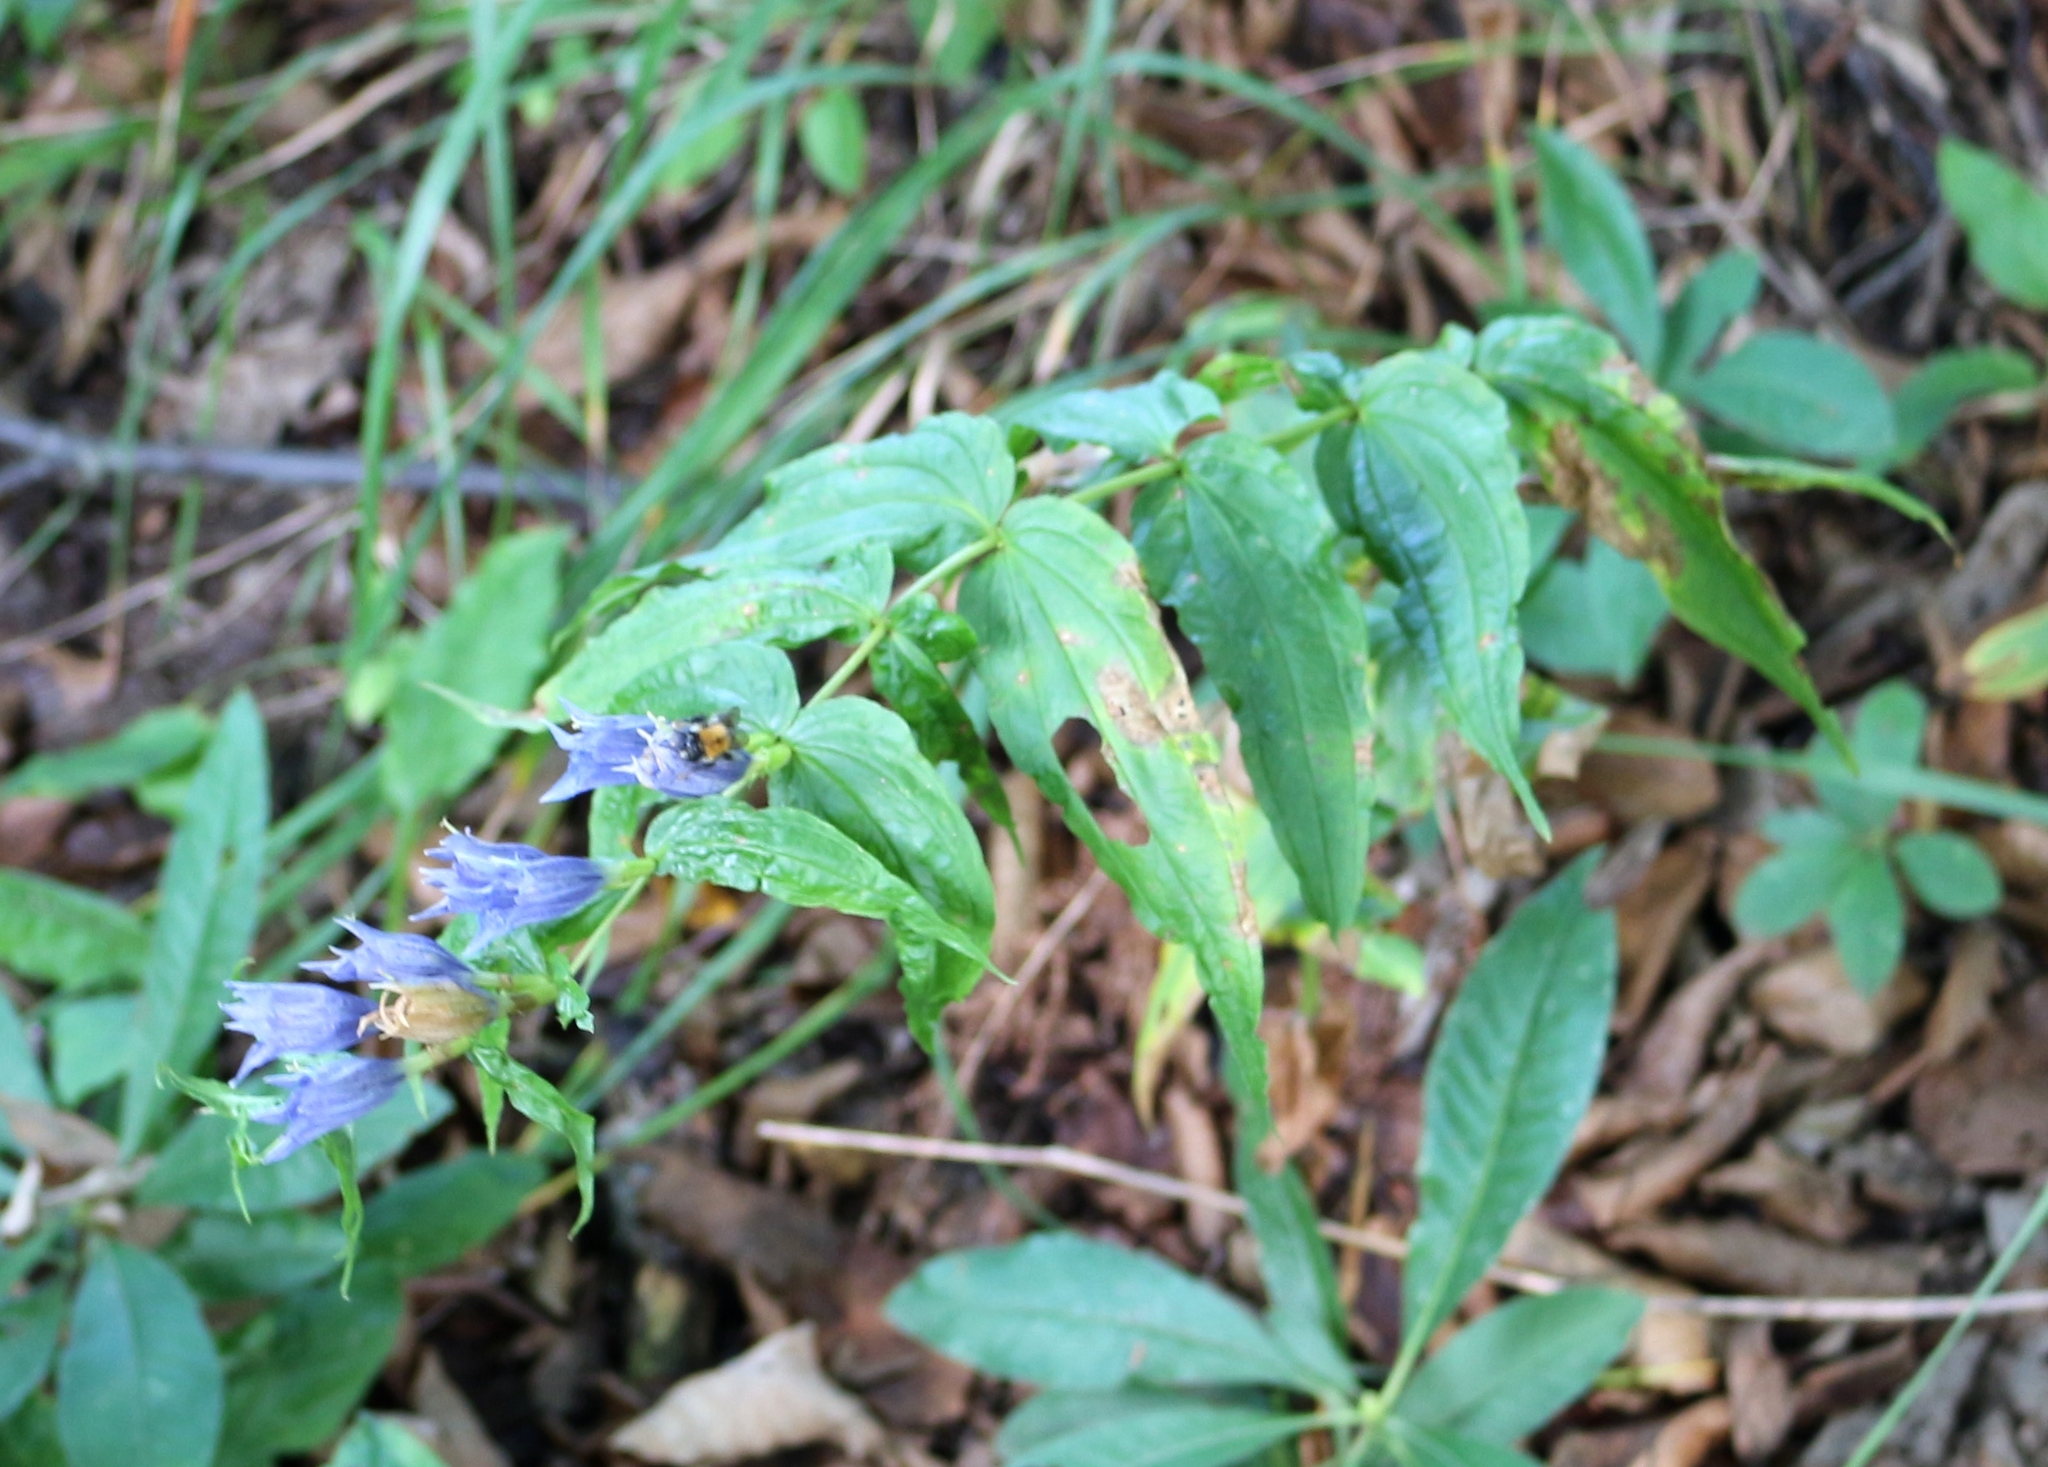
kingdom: Plantae
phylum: Tracheophyta
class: Magnoliopsida
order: Gentianales
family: Gentianaceae
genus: Gentiana
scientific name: Gentiana asclepiadea
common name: Willow gentian
